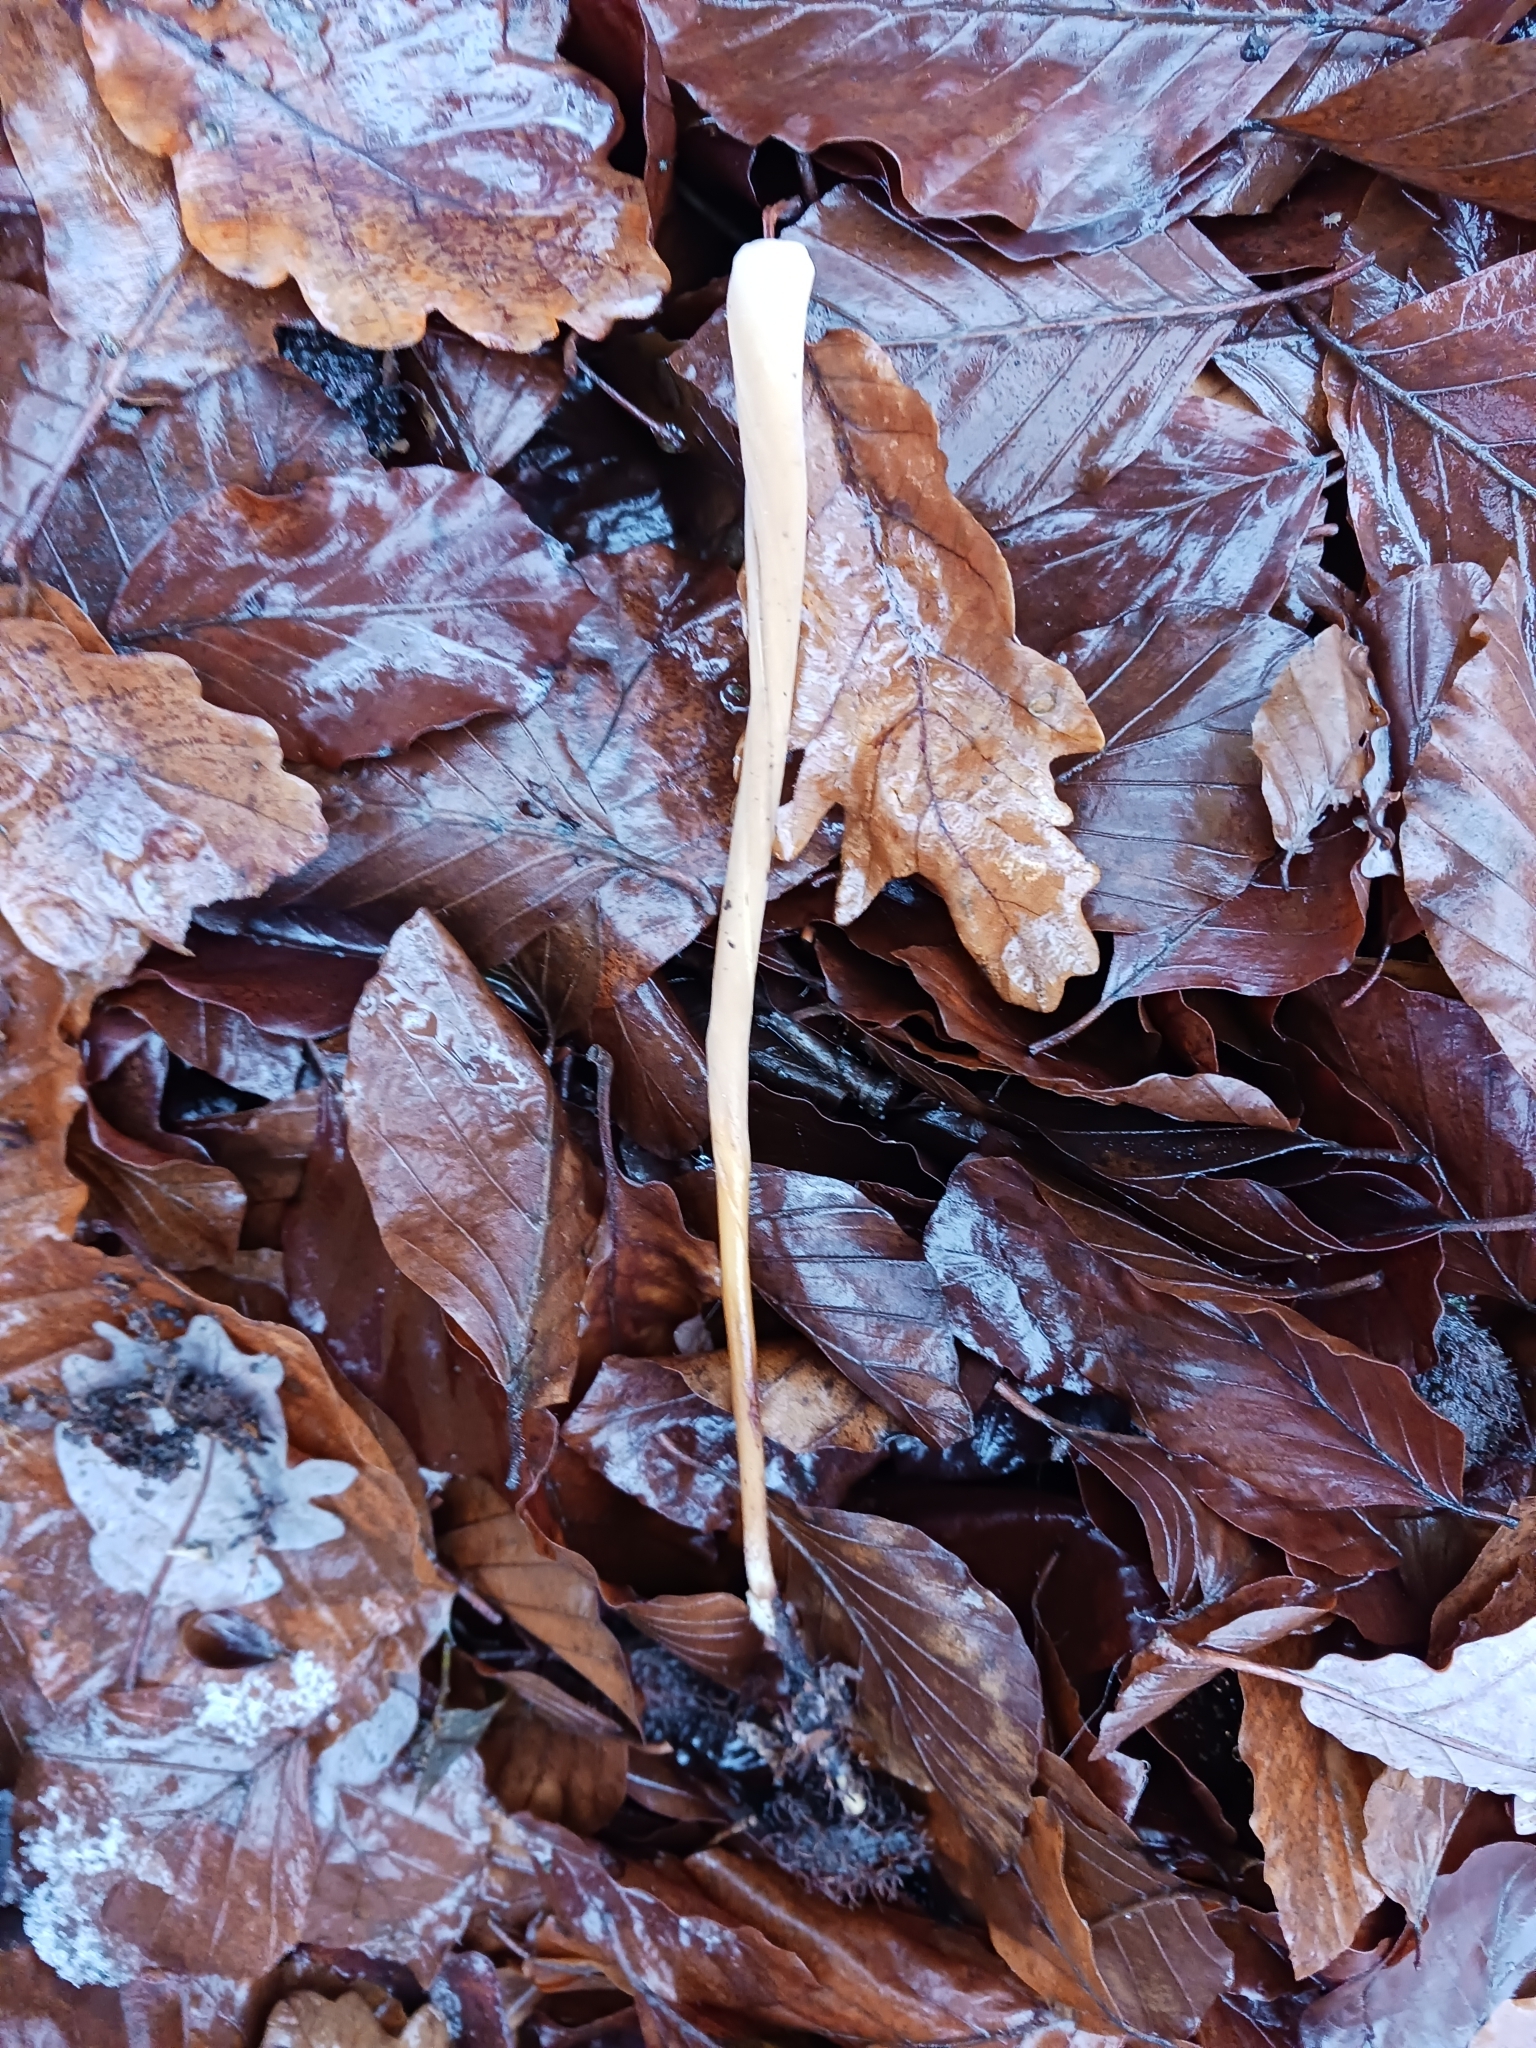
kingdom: Fungi
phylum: Basidiomycota
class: Agaricomycetes
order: Agaricales
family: Typhulaceae
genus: Typhula
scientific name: Typhula fistulosa
